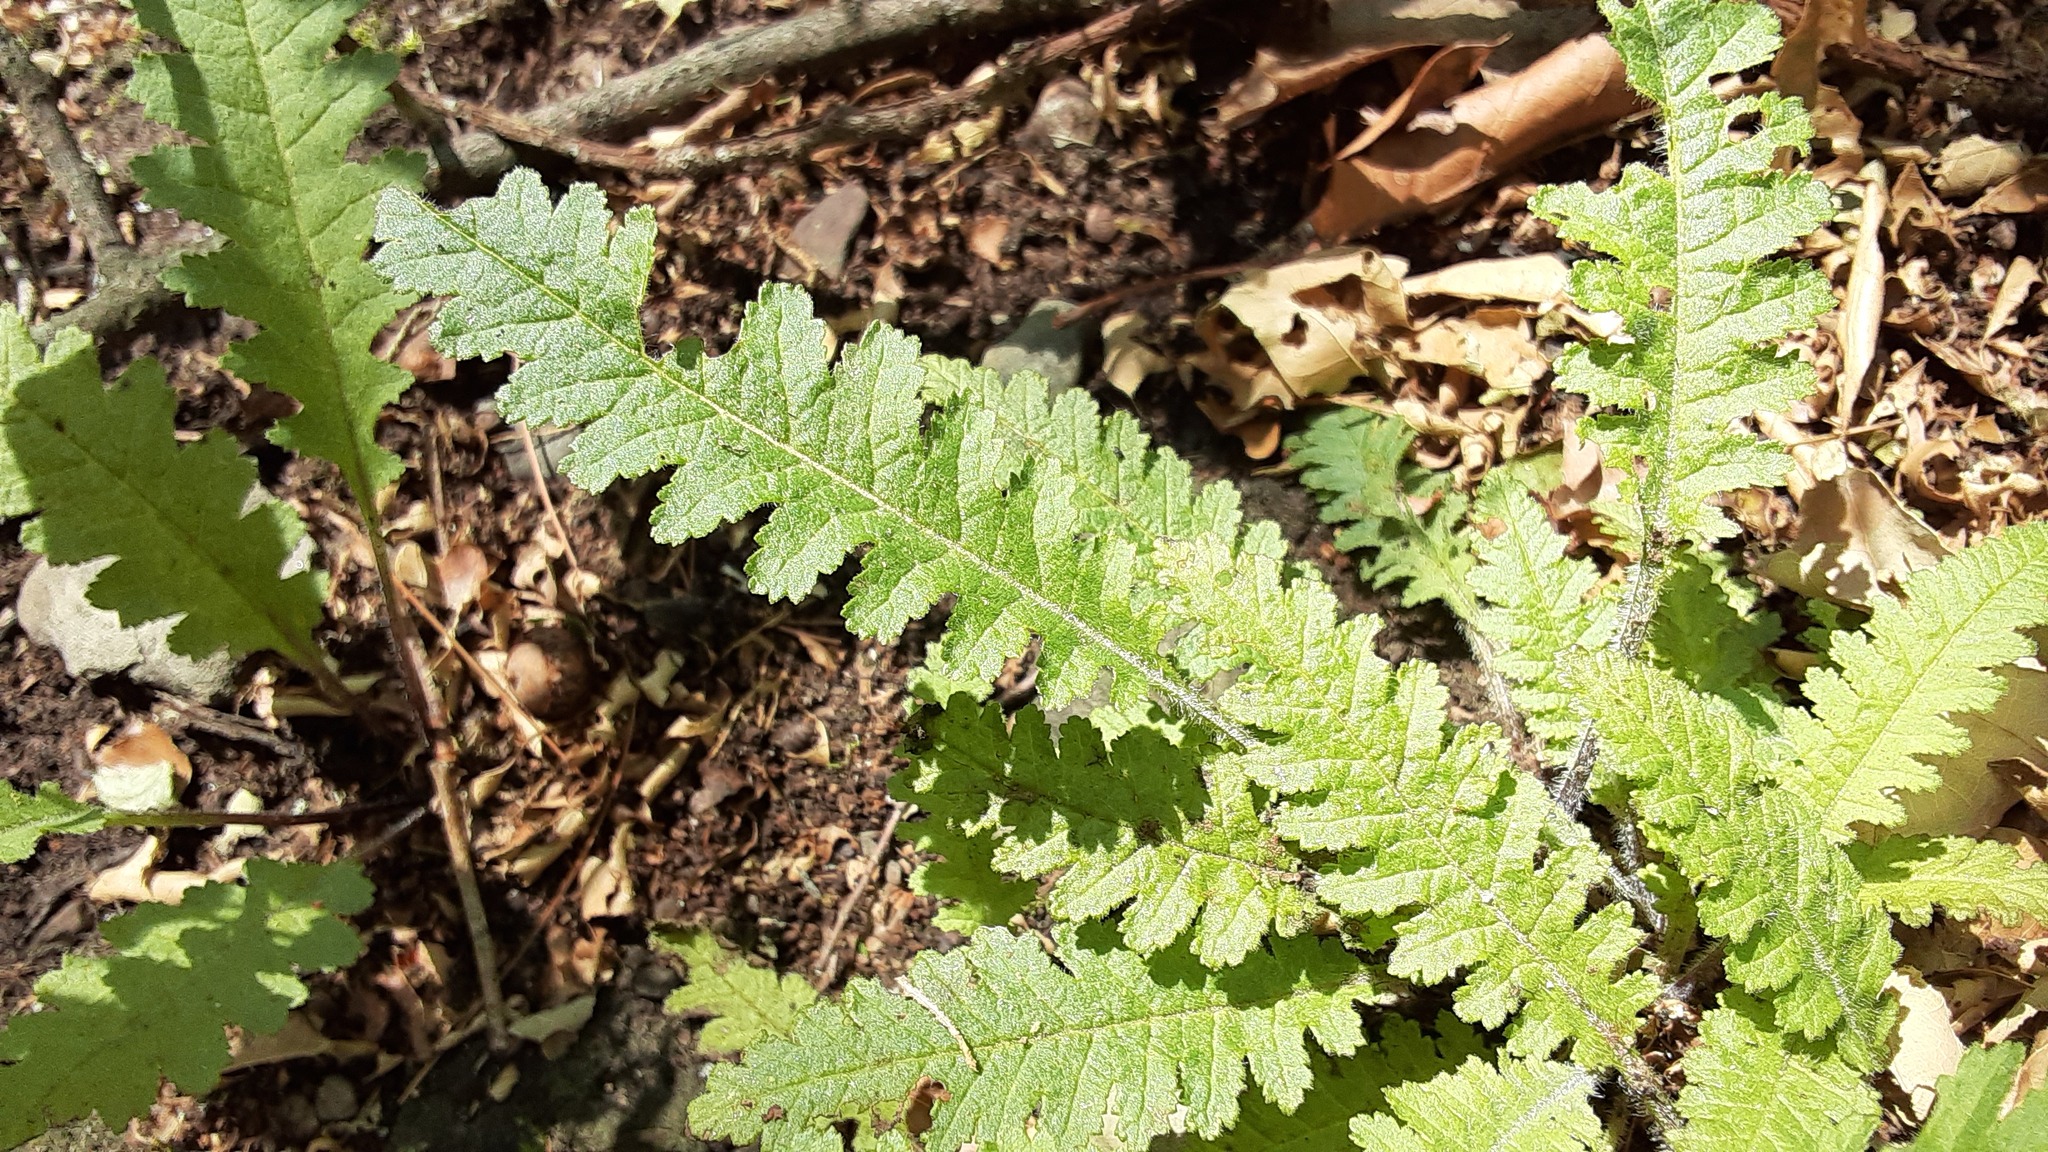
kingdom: Plantae
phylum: Tracheophyta
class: Magnoliopsida
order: Lamiales
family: Orobanchaceae
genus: Pedicularis
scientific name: Pedicularis canadensis
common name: Early lousewort
